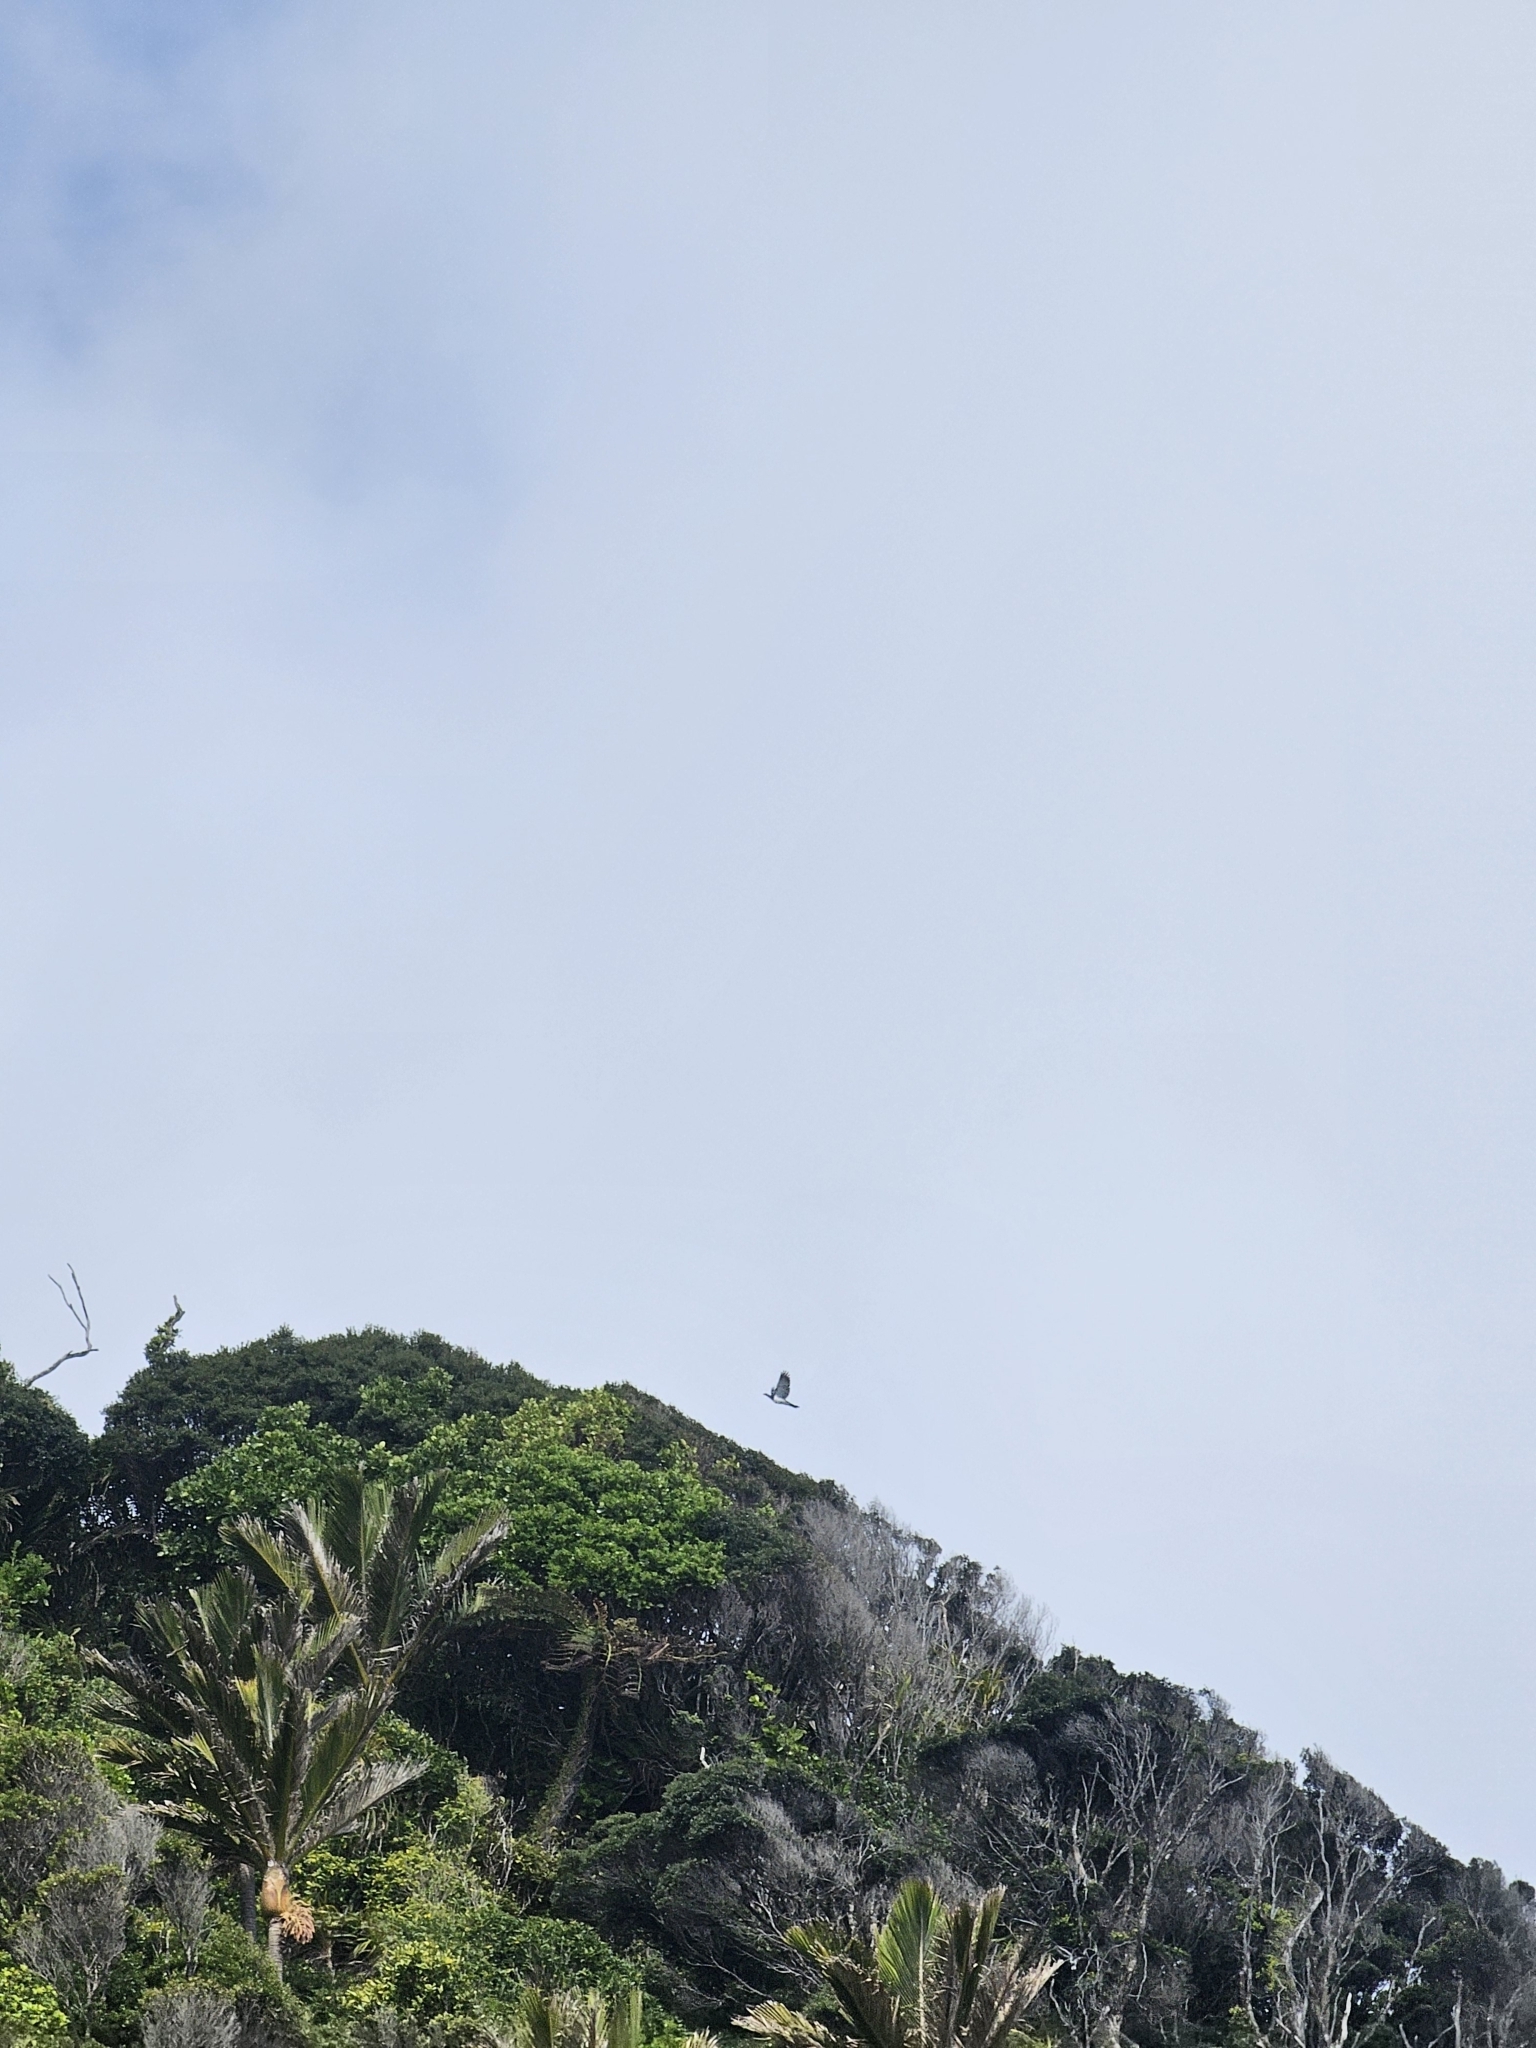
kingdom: Animalia
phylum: Chordata
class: Aves
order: Columbiformes
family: Columbidae
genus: Hemiphaga
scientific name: Hemiphaga novaeseelandiae
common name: New zealand pigeon
